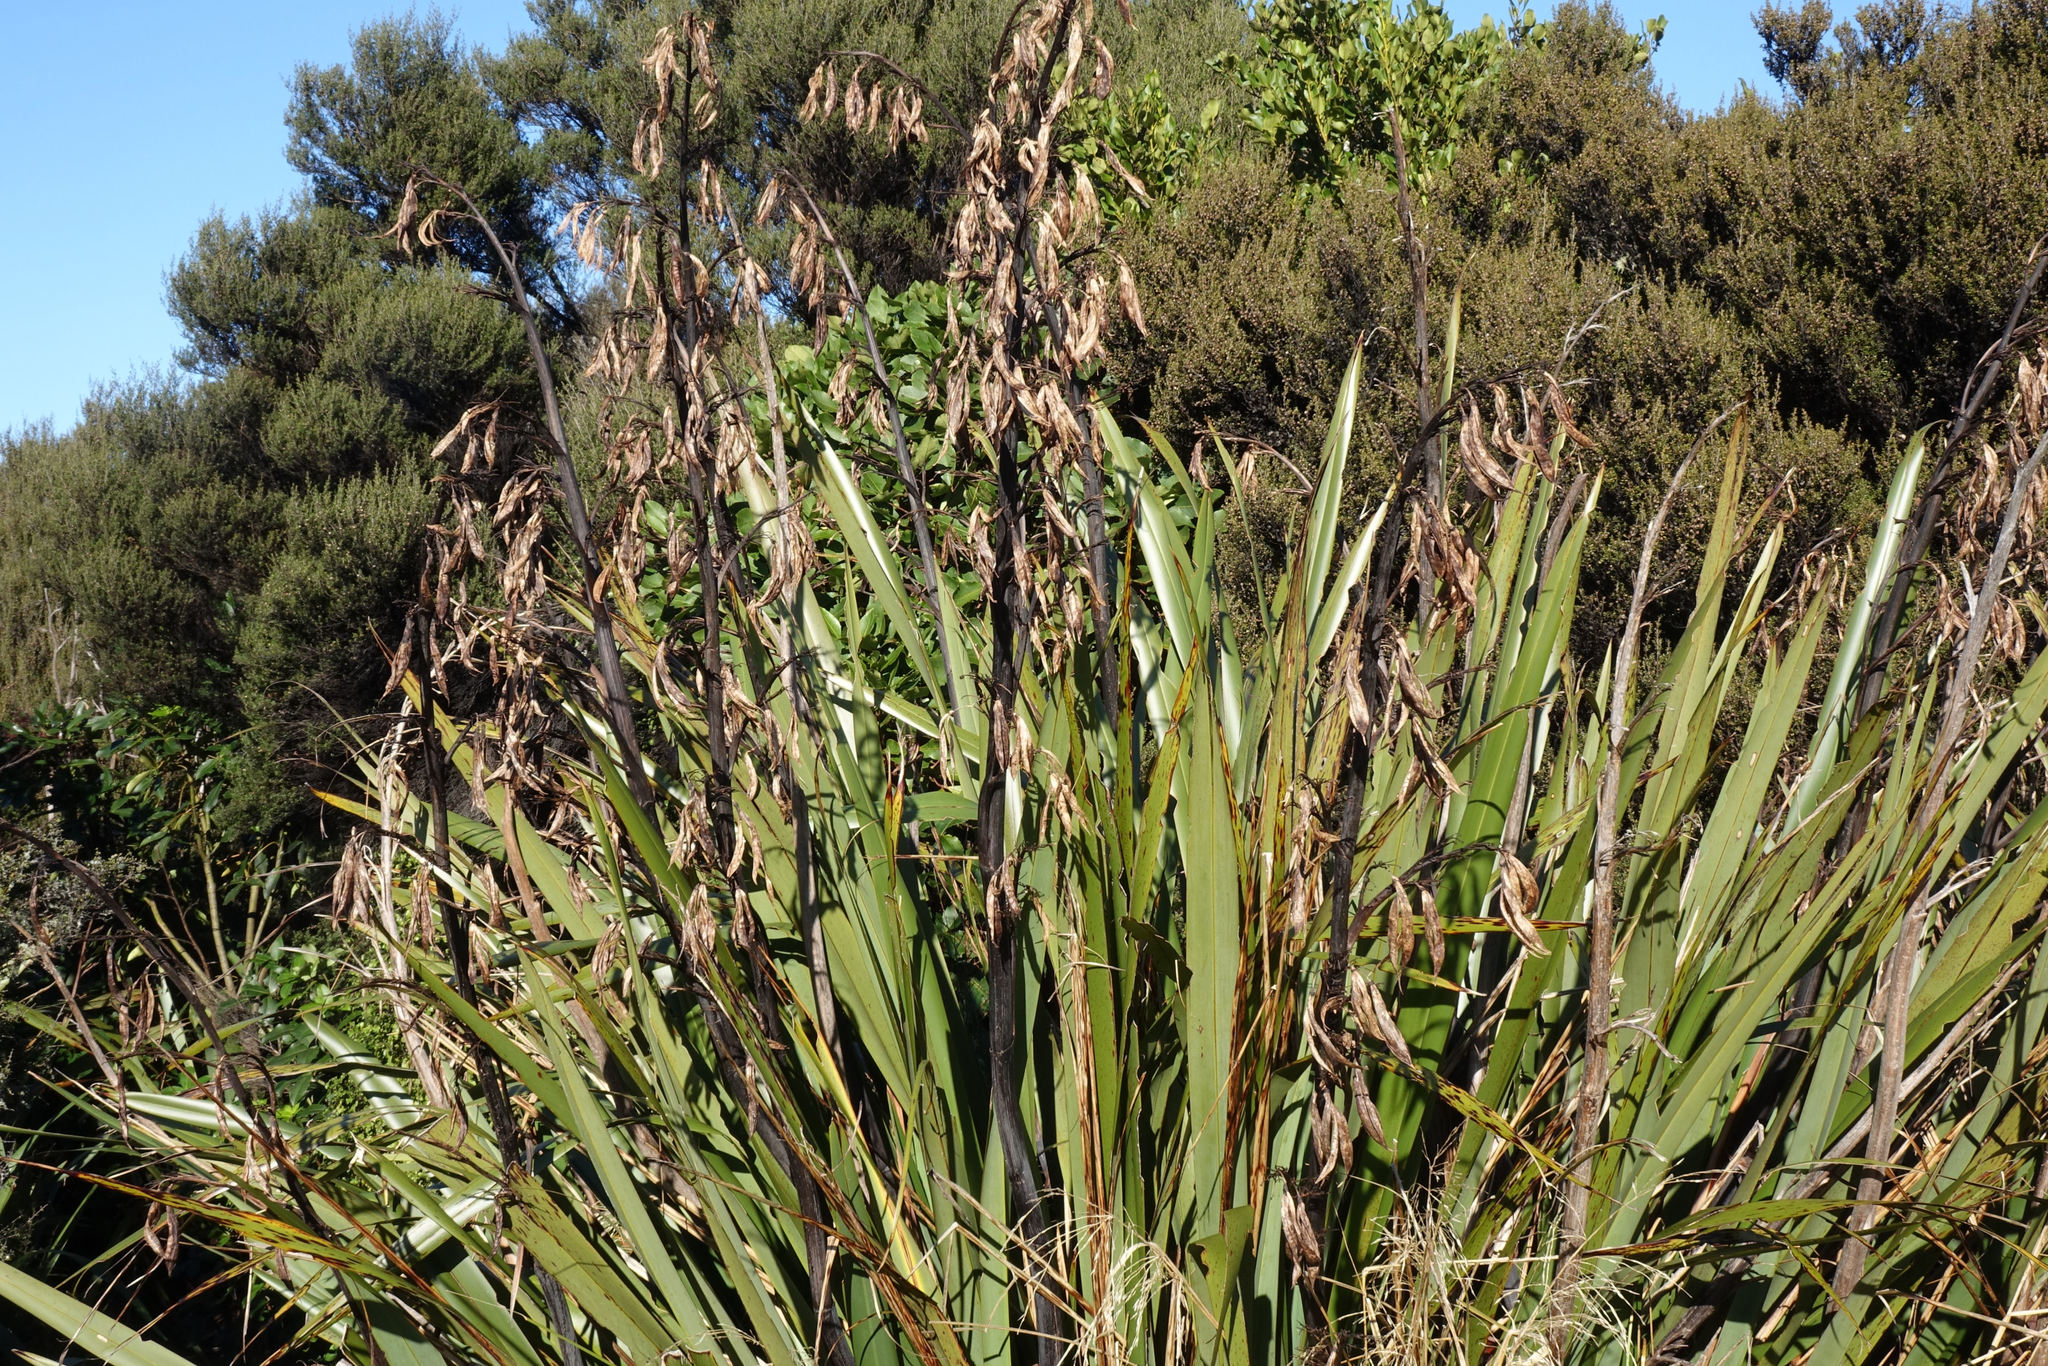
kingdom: Plantae
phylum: Tracheophyta
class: Liliopsida
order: Asparagales
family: Asphodelaceae
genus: Phormium
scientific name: Phormium colensoi
